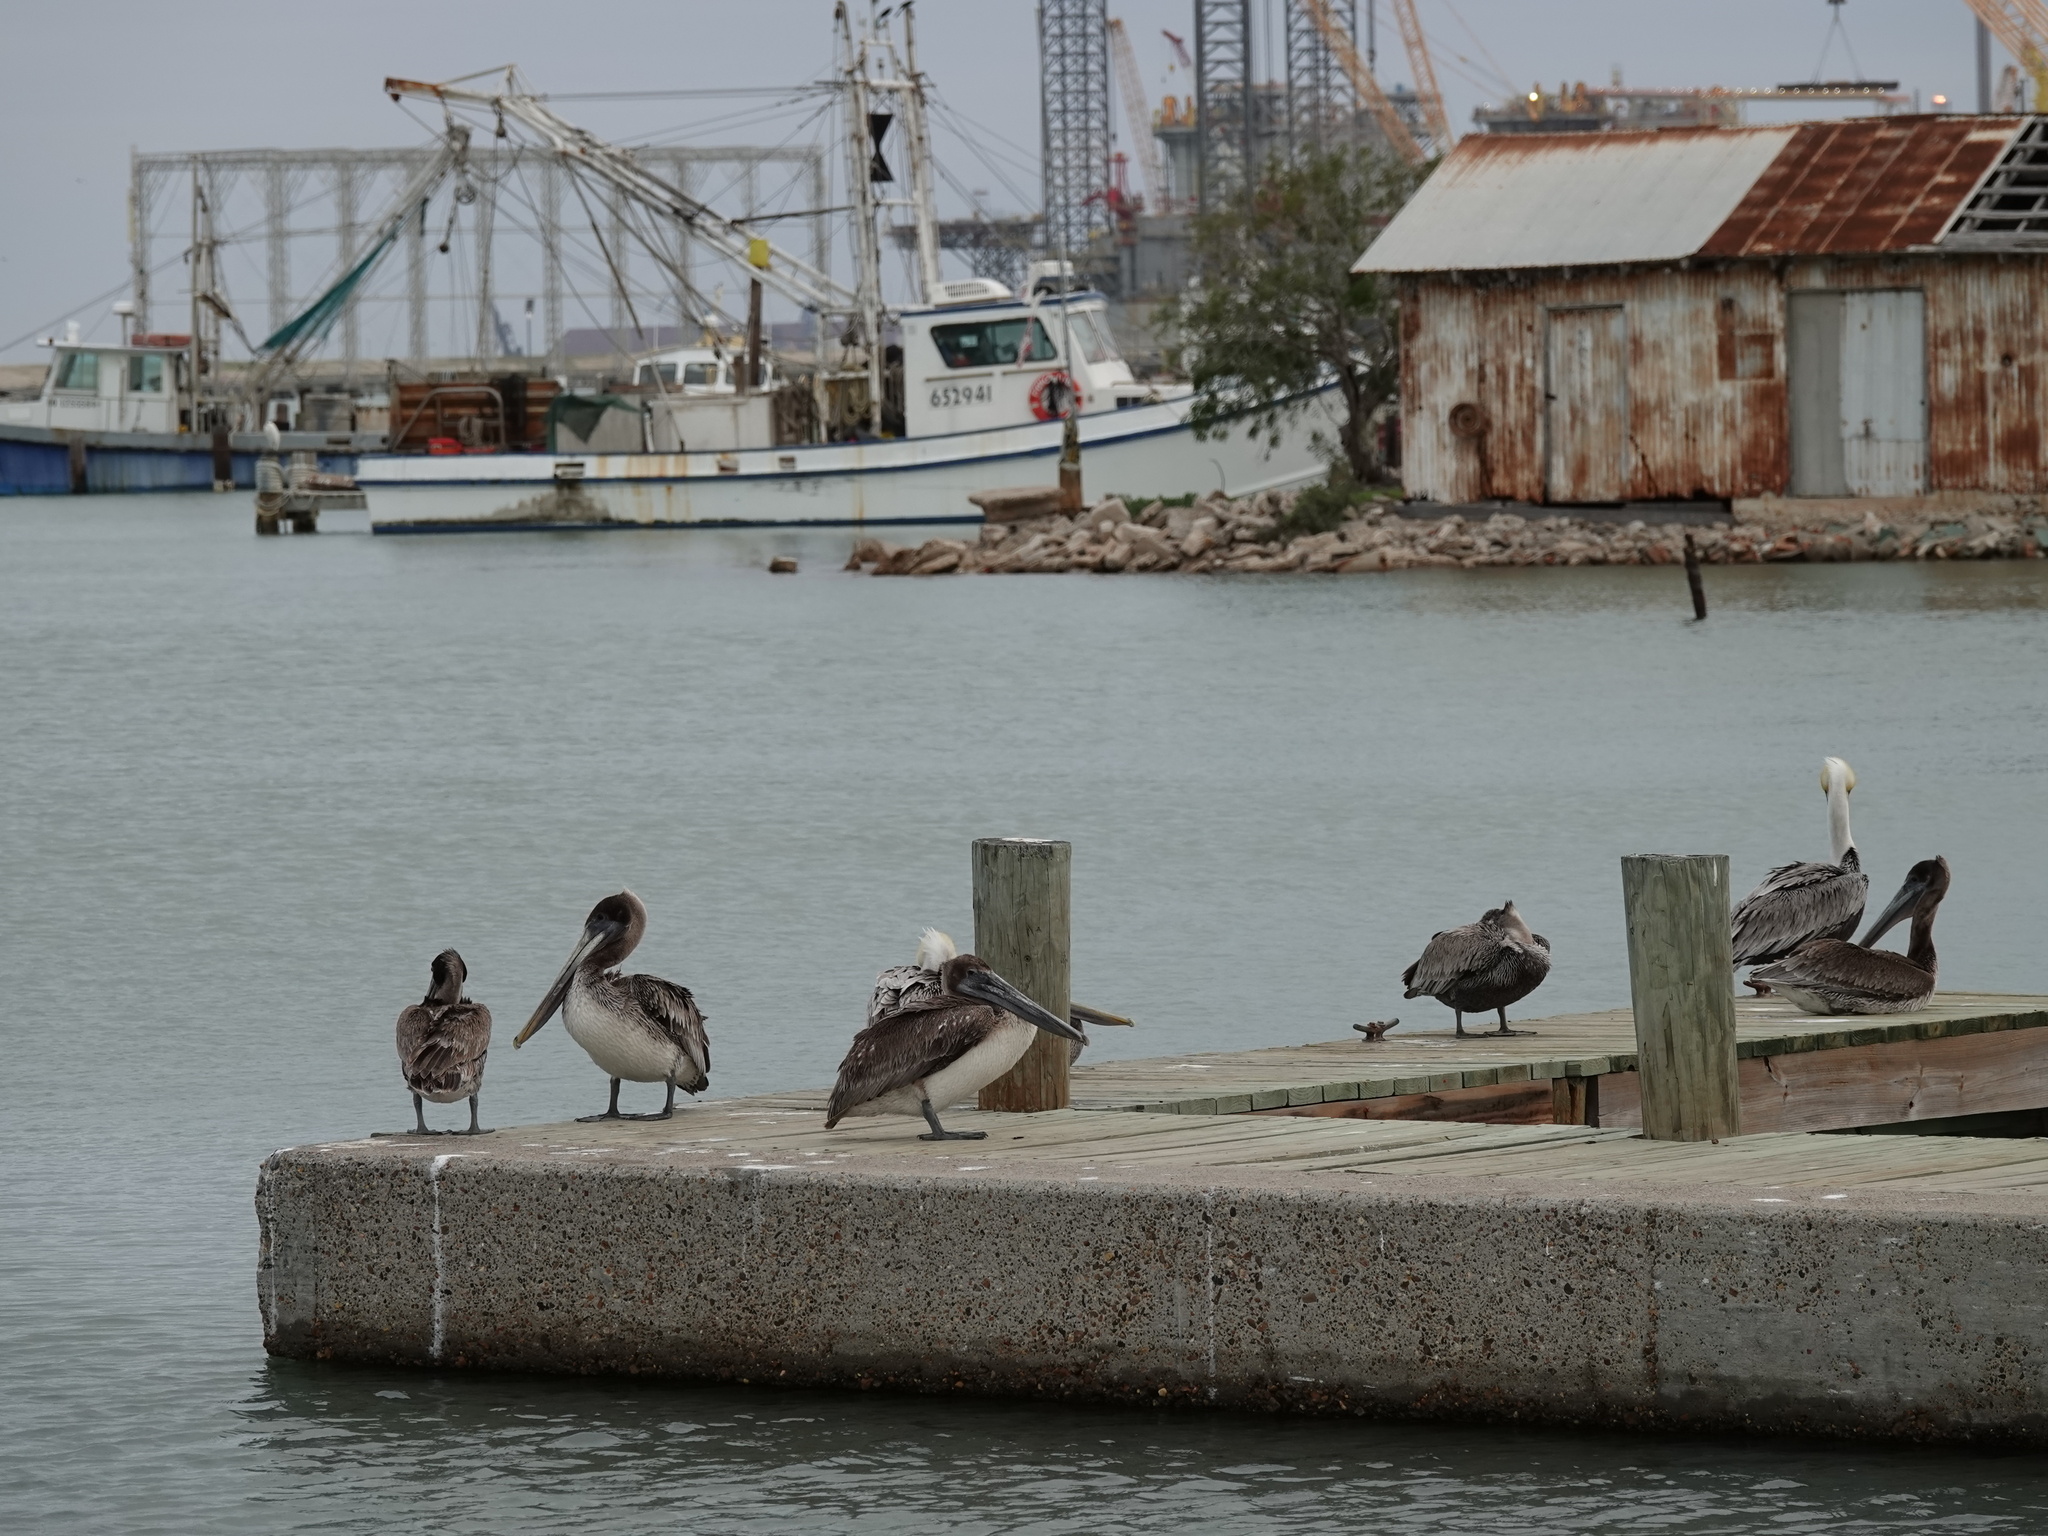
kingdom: Animalia
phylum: Chordata
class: Aves
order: Pelecaniformes
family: Pelecanidae
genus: Pelecanus
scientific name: Pelecanus occidentalis
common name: Brown pelican
